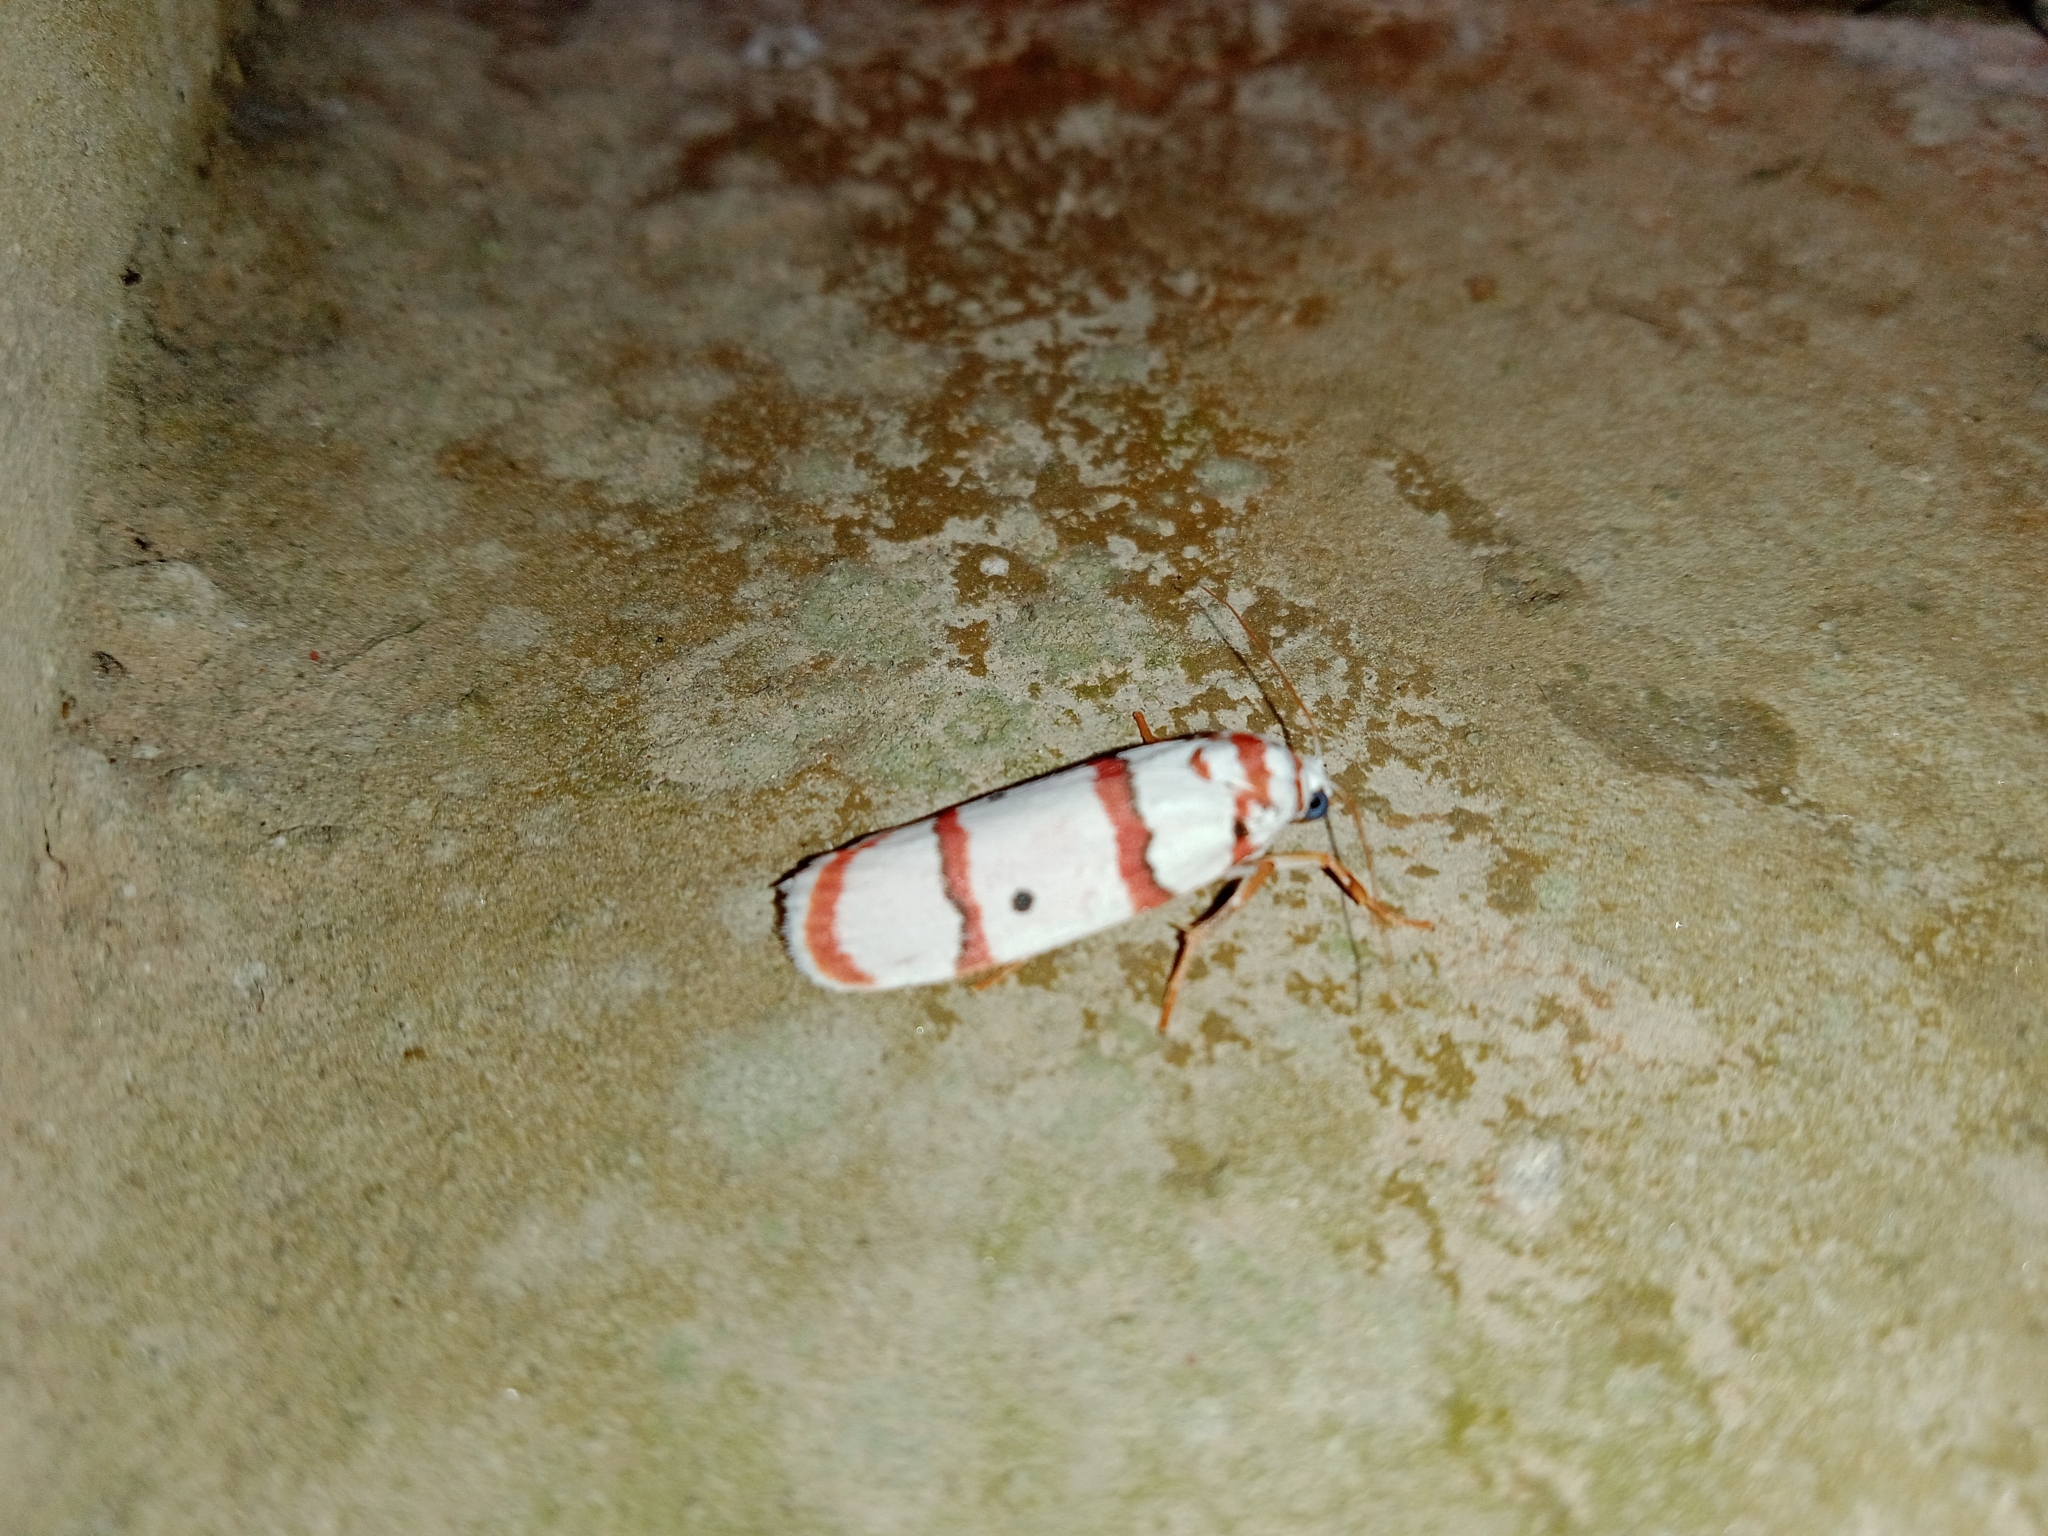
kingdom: Animalia
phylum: Arthropoda
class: Insecta
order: Lepidoptera
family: Erebidae
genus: Cyana
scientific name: Cyana peregrina
